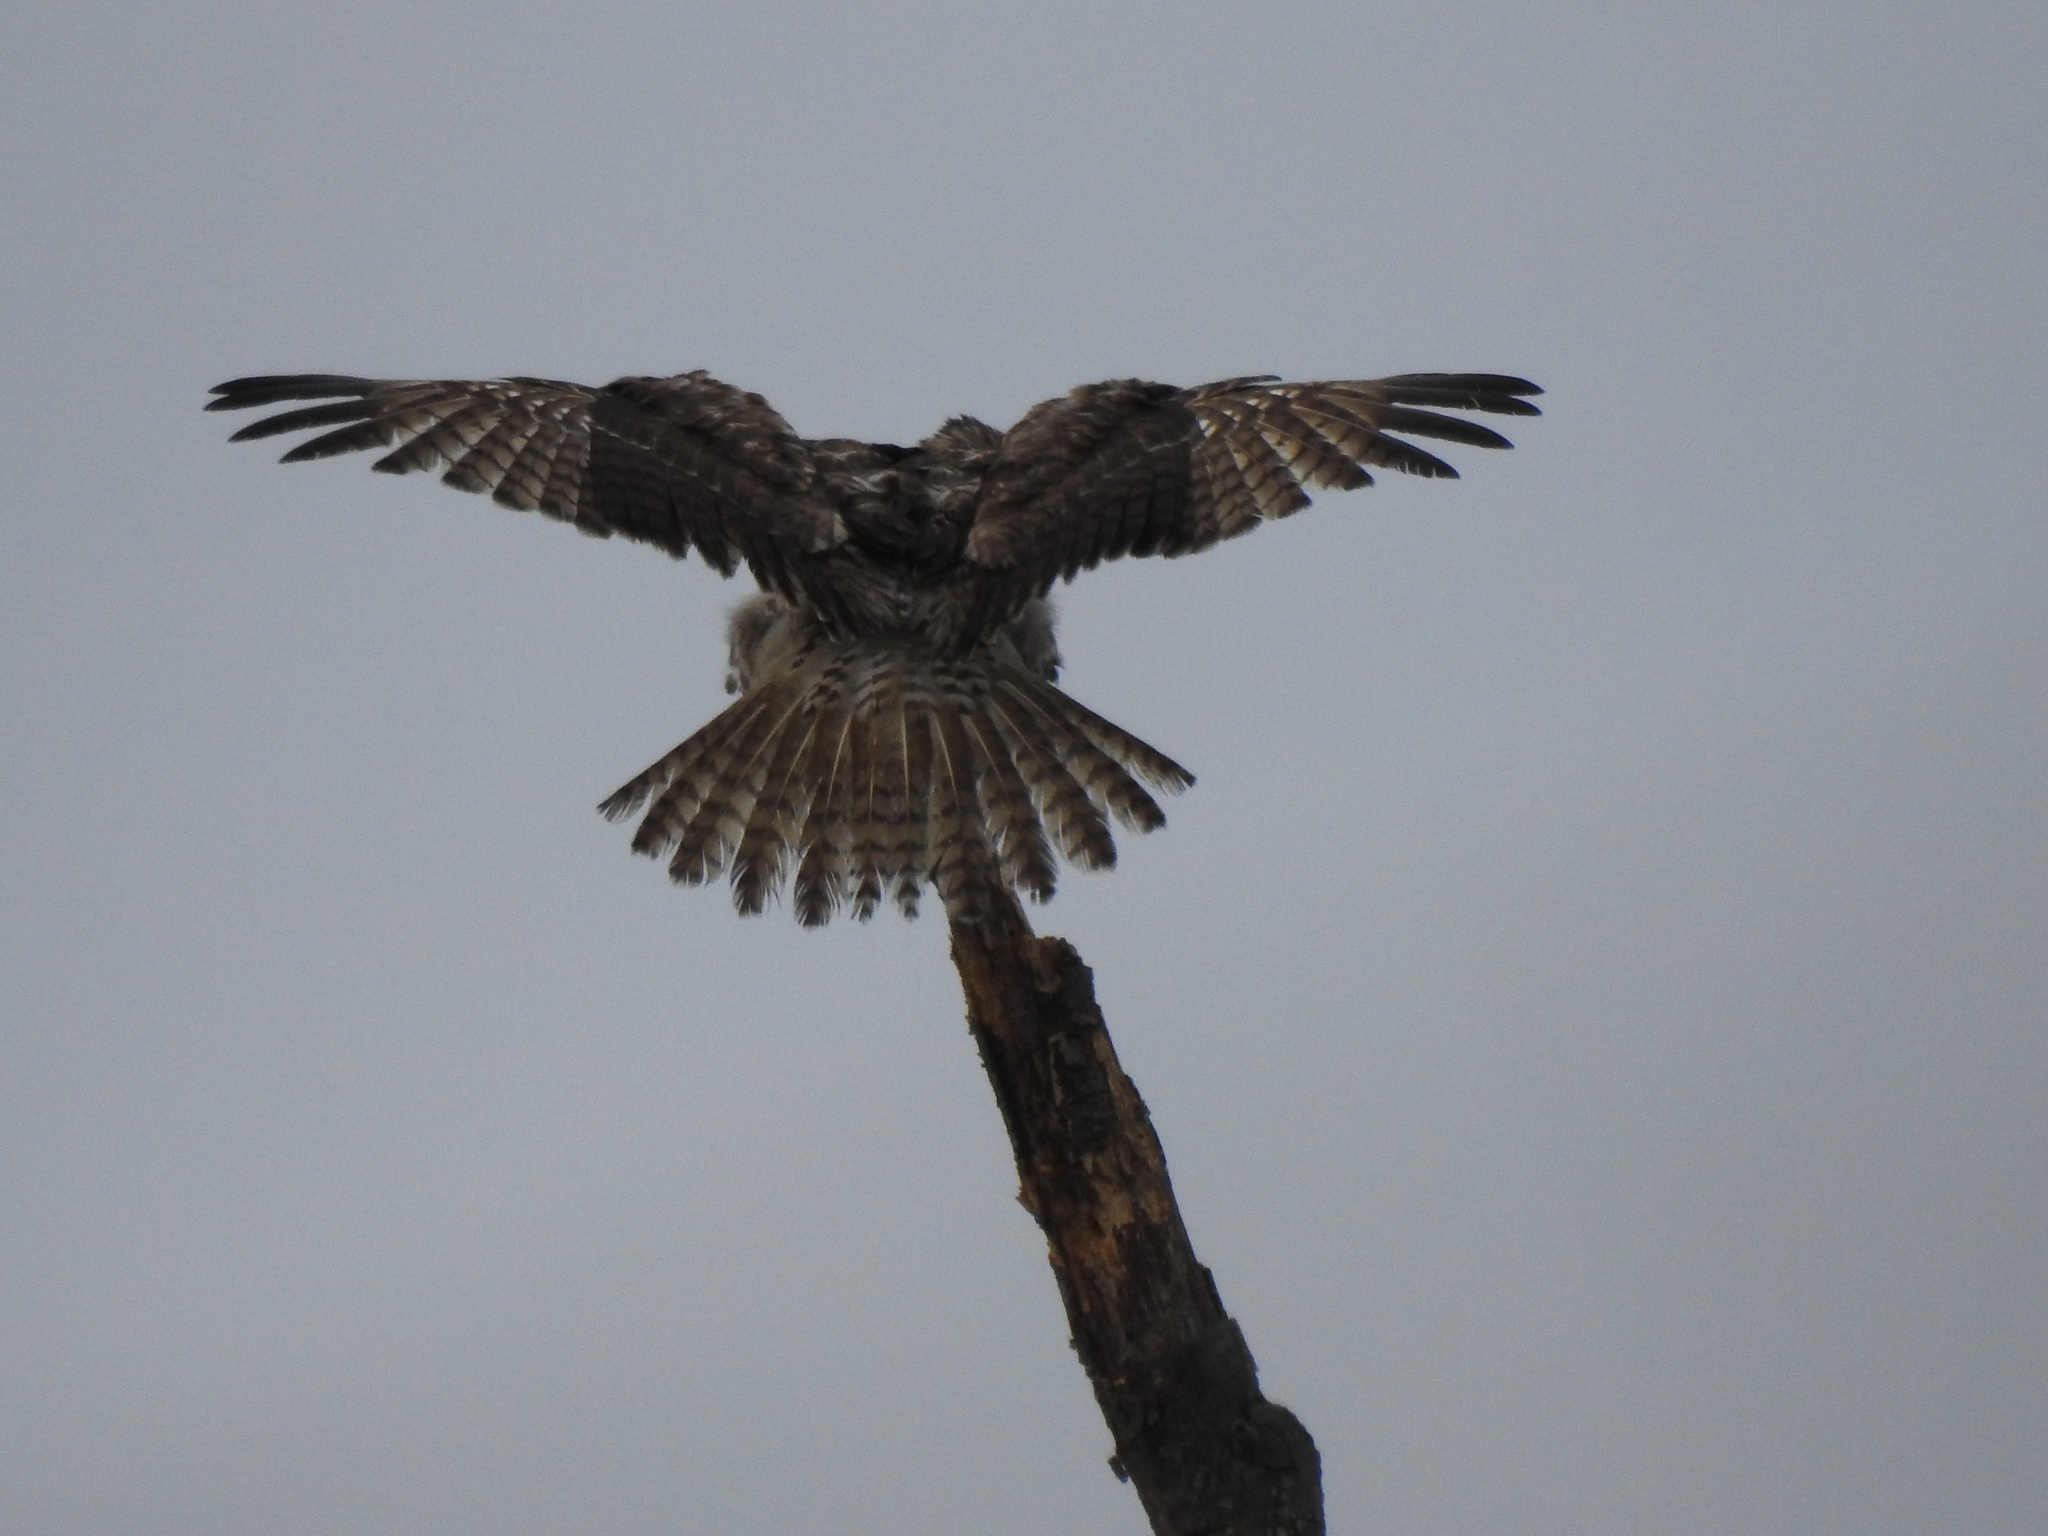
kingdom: Animalia
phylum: Chordata
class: Aves
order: Accipitriformes
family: Accipitridae
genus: Buteo
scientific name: Buteo jamaicensis
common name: Red-tailed hawk
